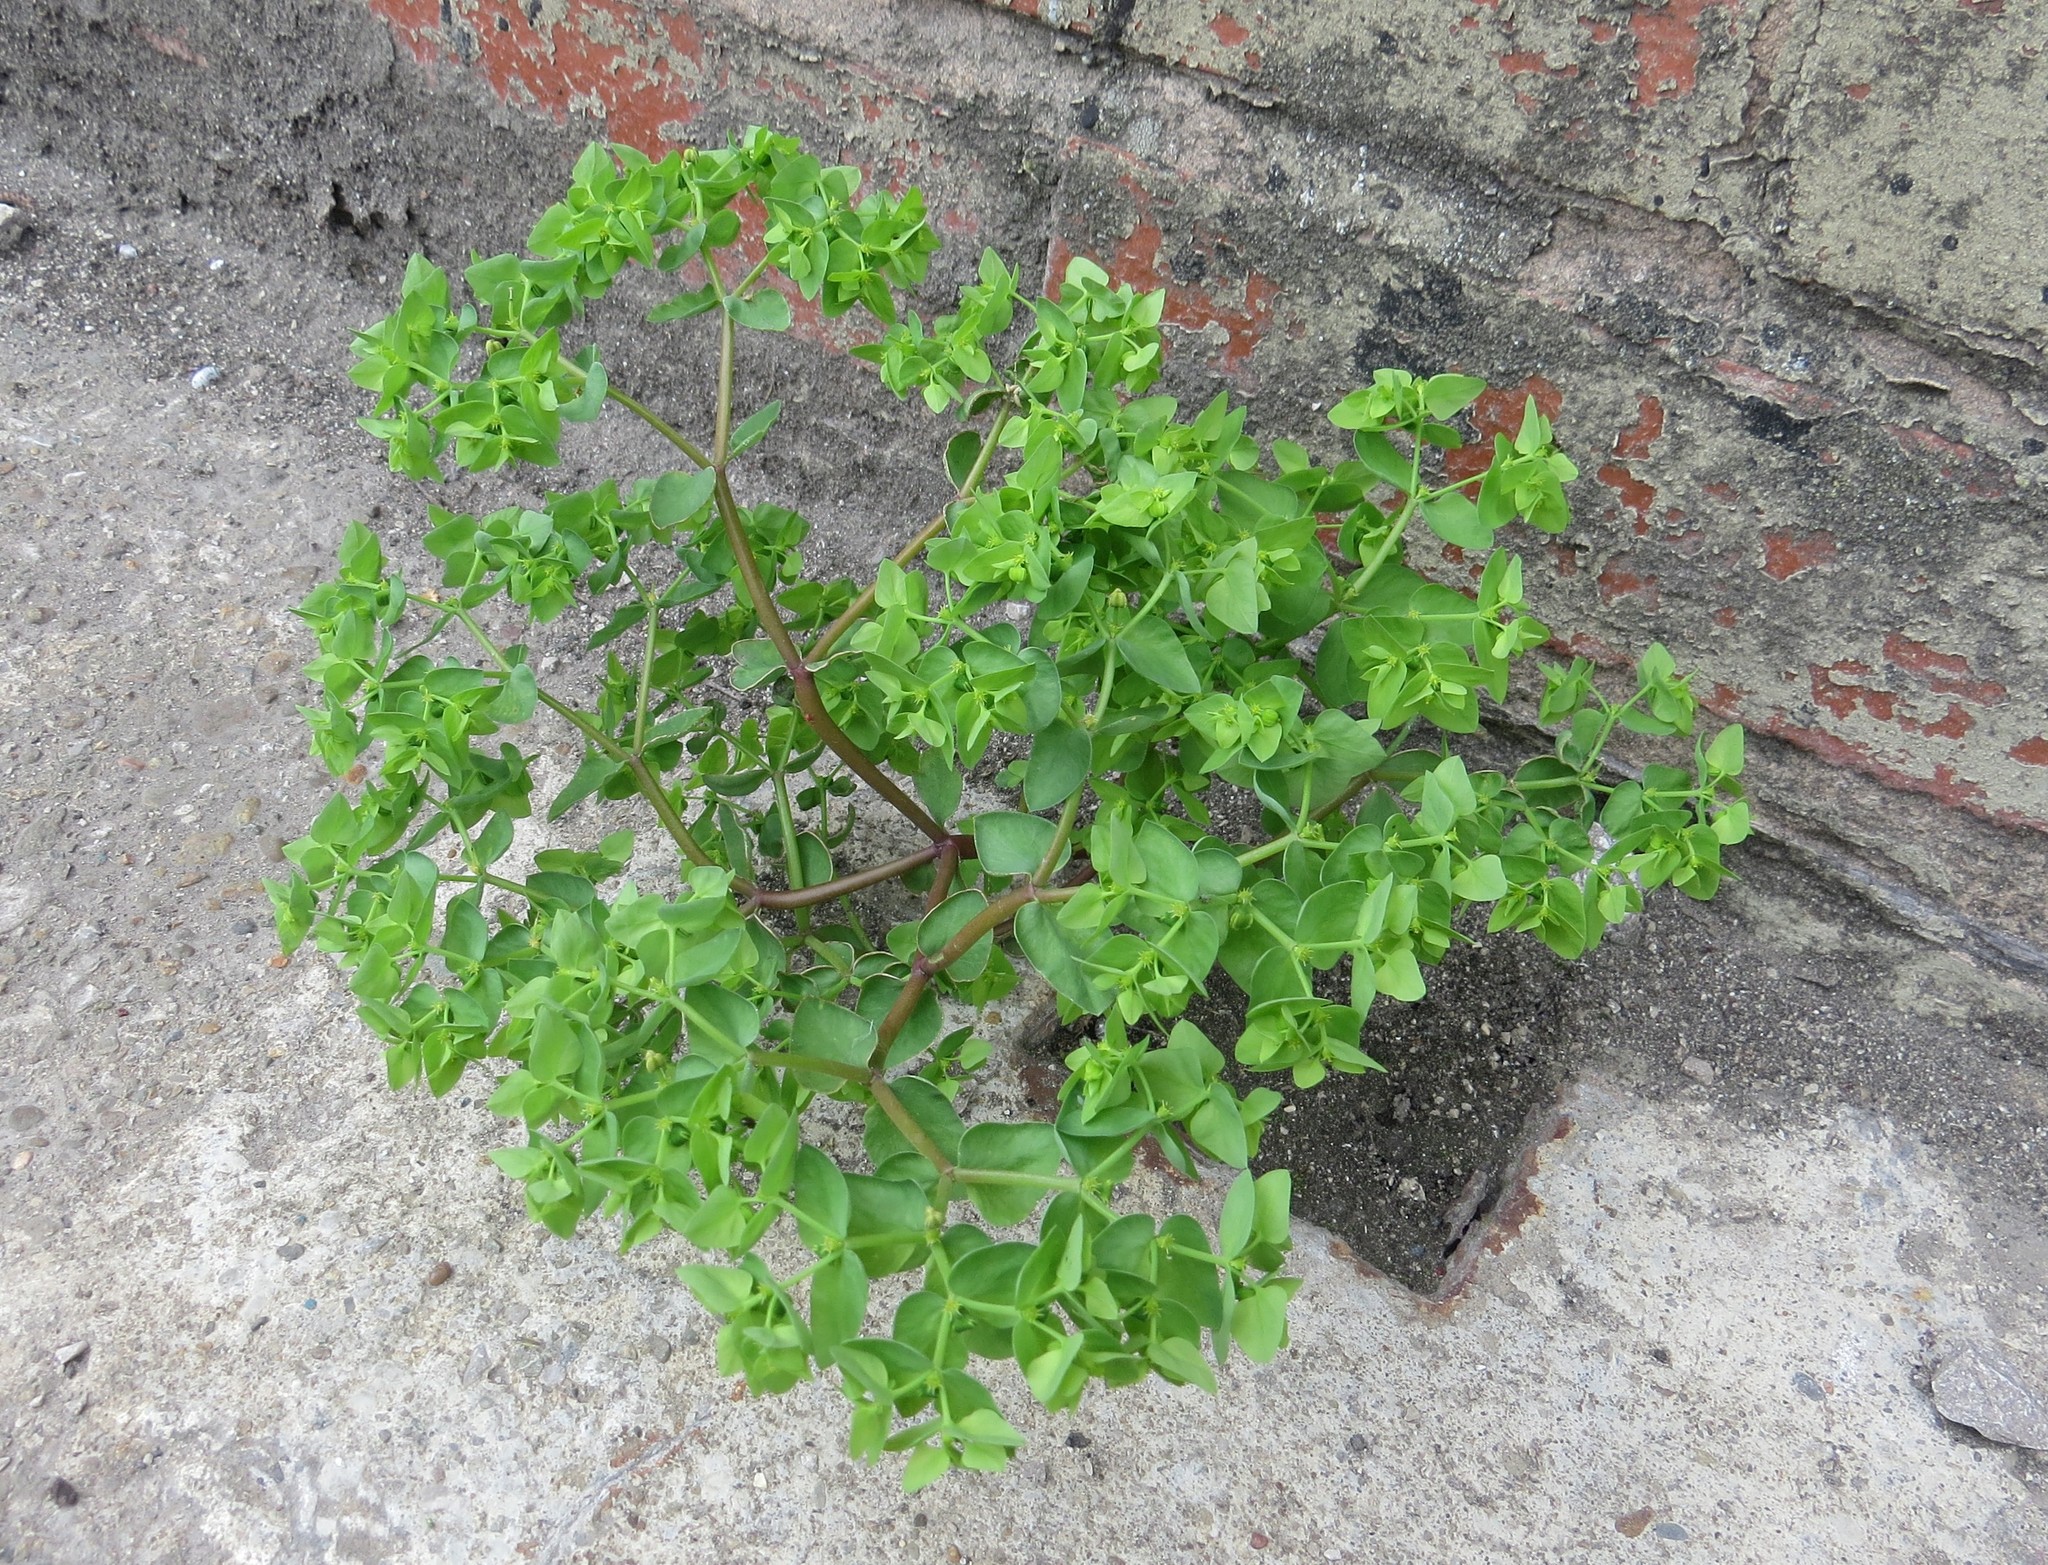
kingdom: Plantae
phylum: Tracheophyta
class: Magnoliopsida
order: Malpighiales
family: Euphorbiaceae
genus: Euphorbia
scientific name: Euphorbia peplus
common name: Petty spurge
